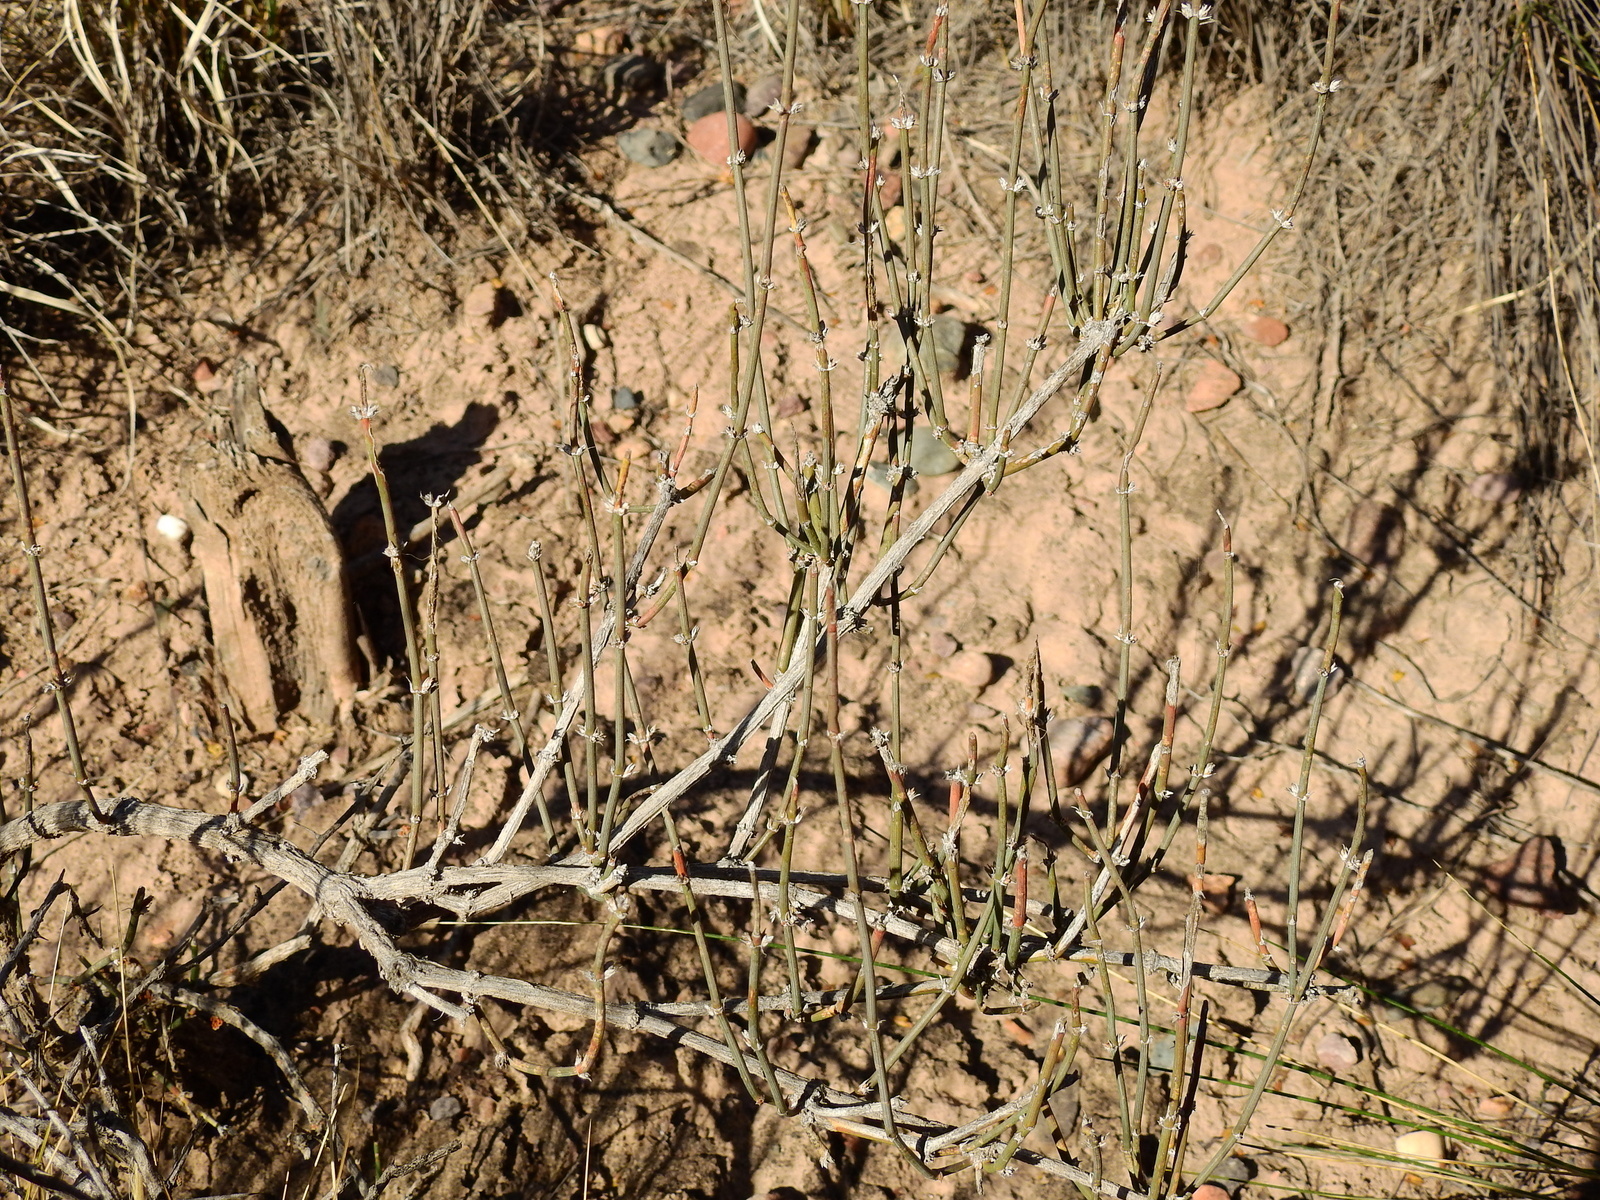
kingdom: Plantae
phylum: Tracheophyta
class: Gnetopsida
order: Ephedrales
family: Ephedraceae
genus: Ephedra
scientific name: Ephedra triandra
